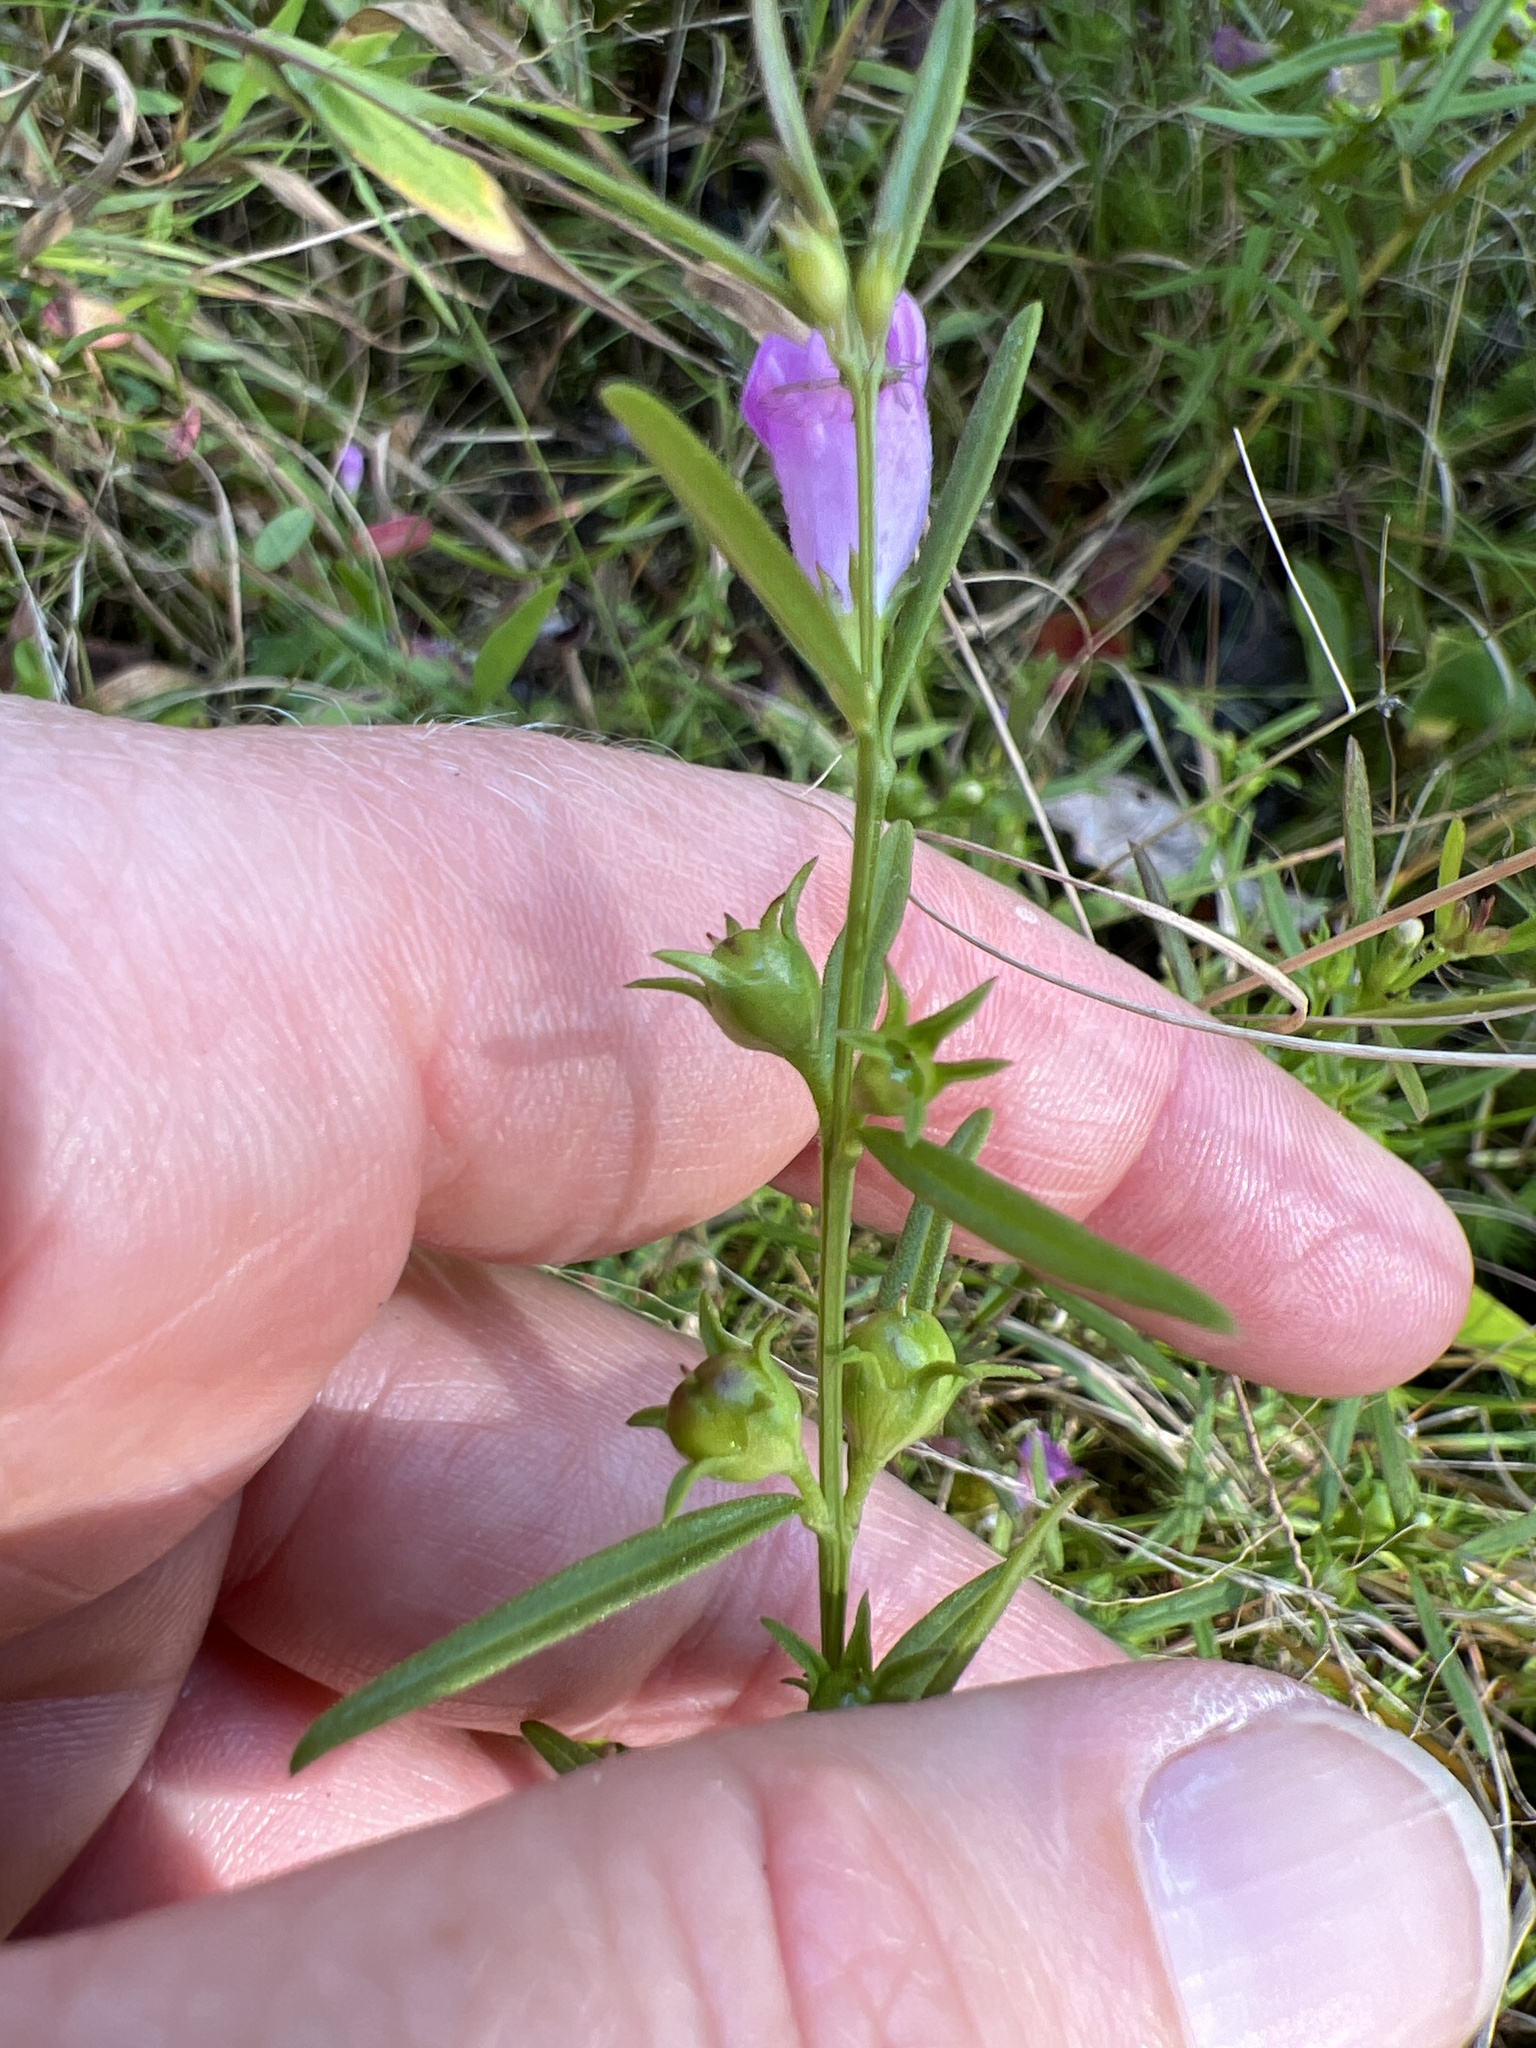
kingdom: Plantae
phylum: Tracheophyta
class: Magnoliopsida
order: Lamiales
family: Orobanchaceae
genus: Agalinis
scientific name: Agalinis neoscotica
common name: Middleton false foxglove
